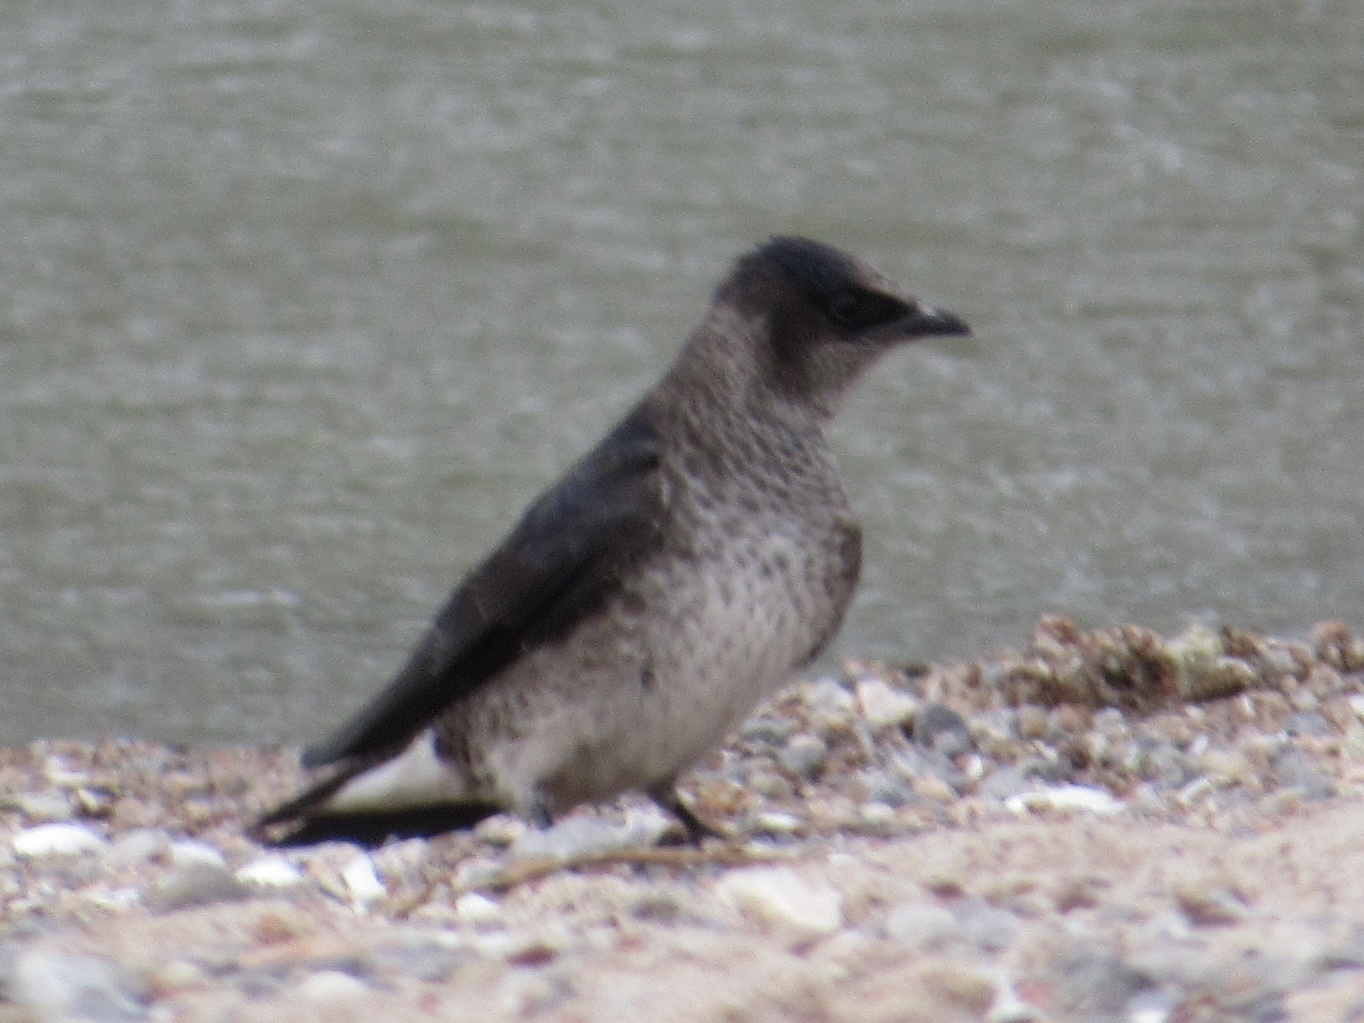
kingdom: Animalia
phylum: Chordata
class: Aves
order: Passeriformes
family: Hirundinidae
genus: Progne
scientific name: Progne subis
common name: Purple martin
